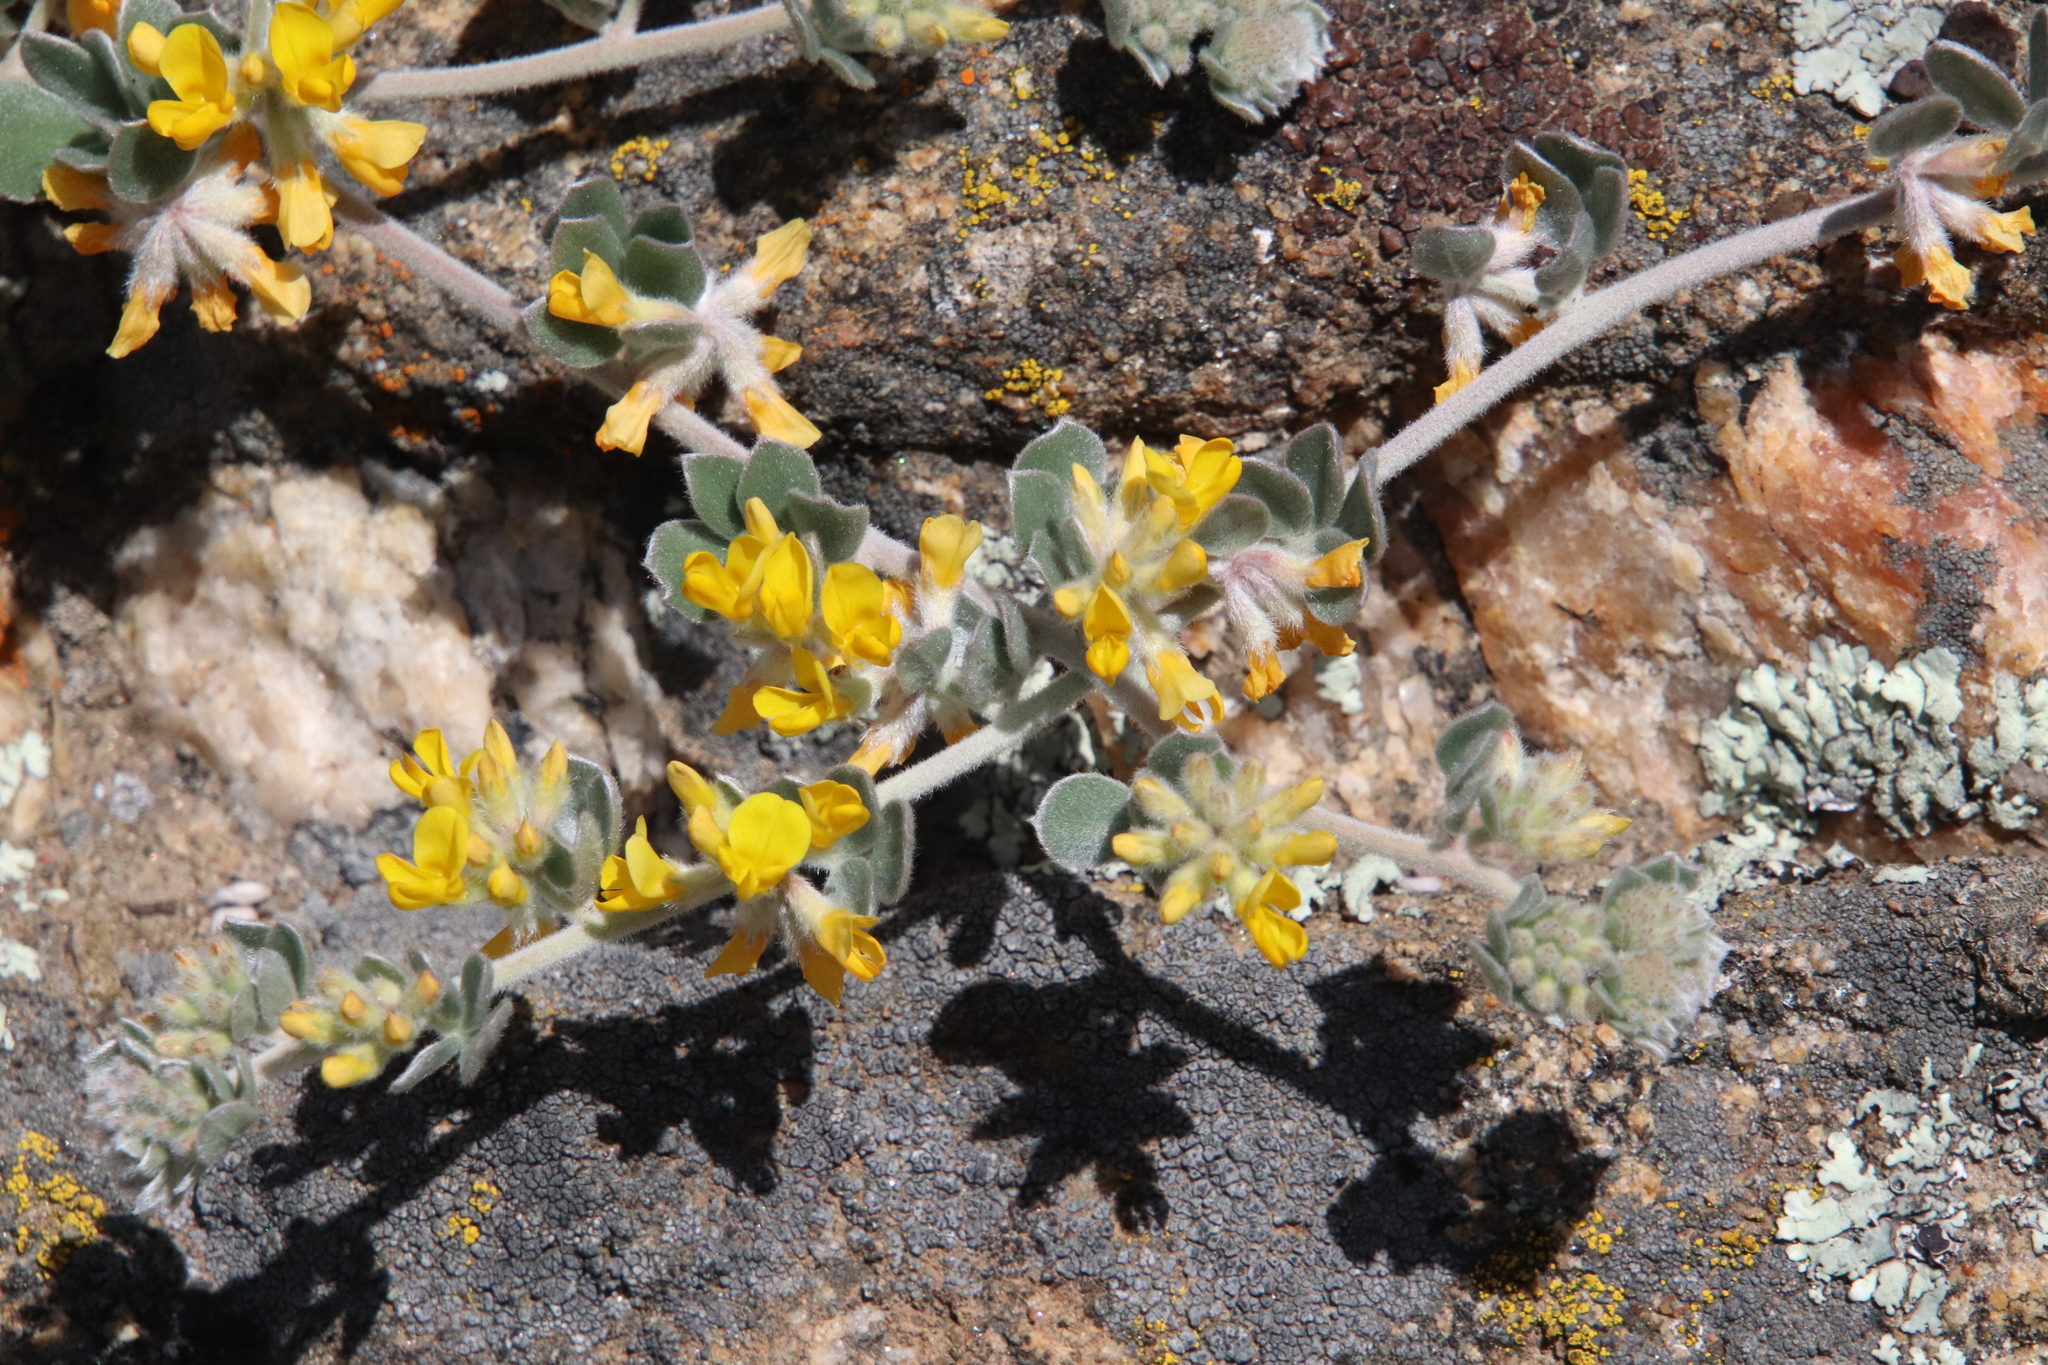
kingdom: Plantae
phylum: Tracheophyta
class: Magnoliopsida
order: Fabales
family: Fabaceae
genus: Acmispon
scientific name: Acmispon argophyllus
